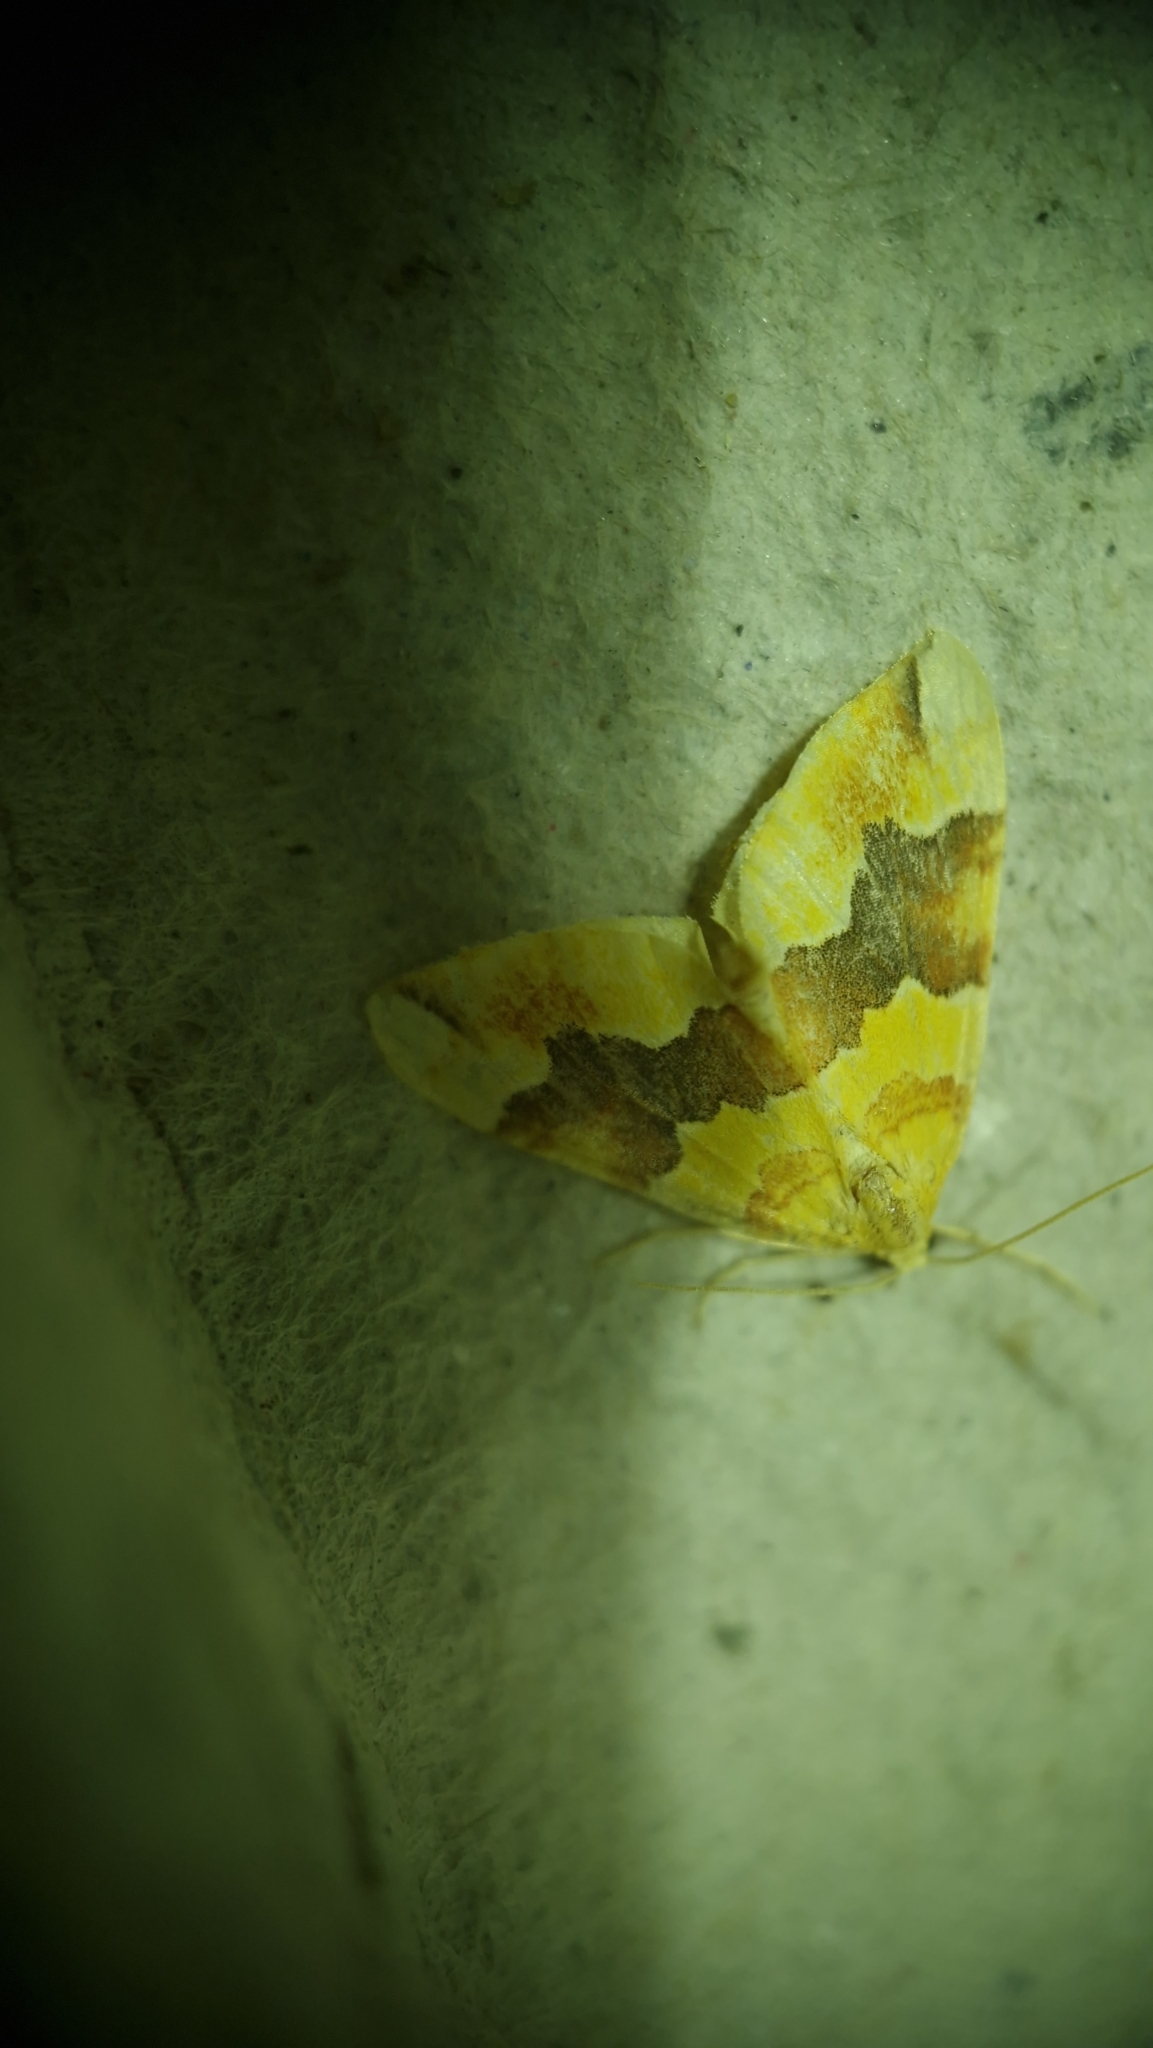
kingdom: Animalia
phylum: Arthropoda
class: Insecta
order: Lepidoptera
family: Geometridae
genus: Cidaria
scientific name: Cidaria fulvata
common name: Barred yellow
